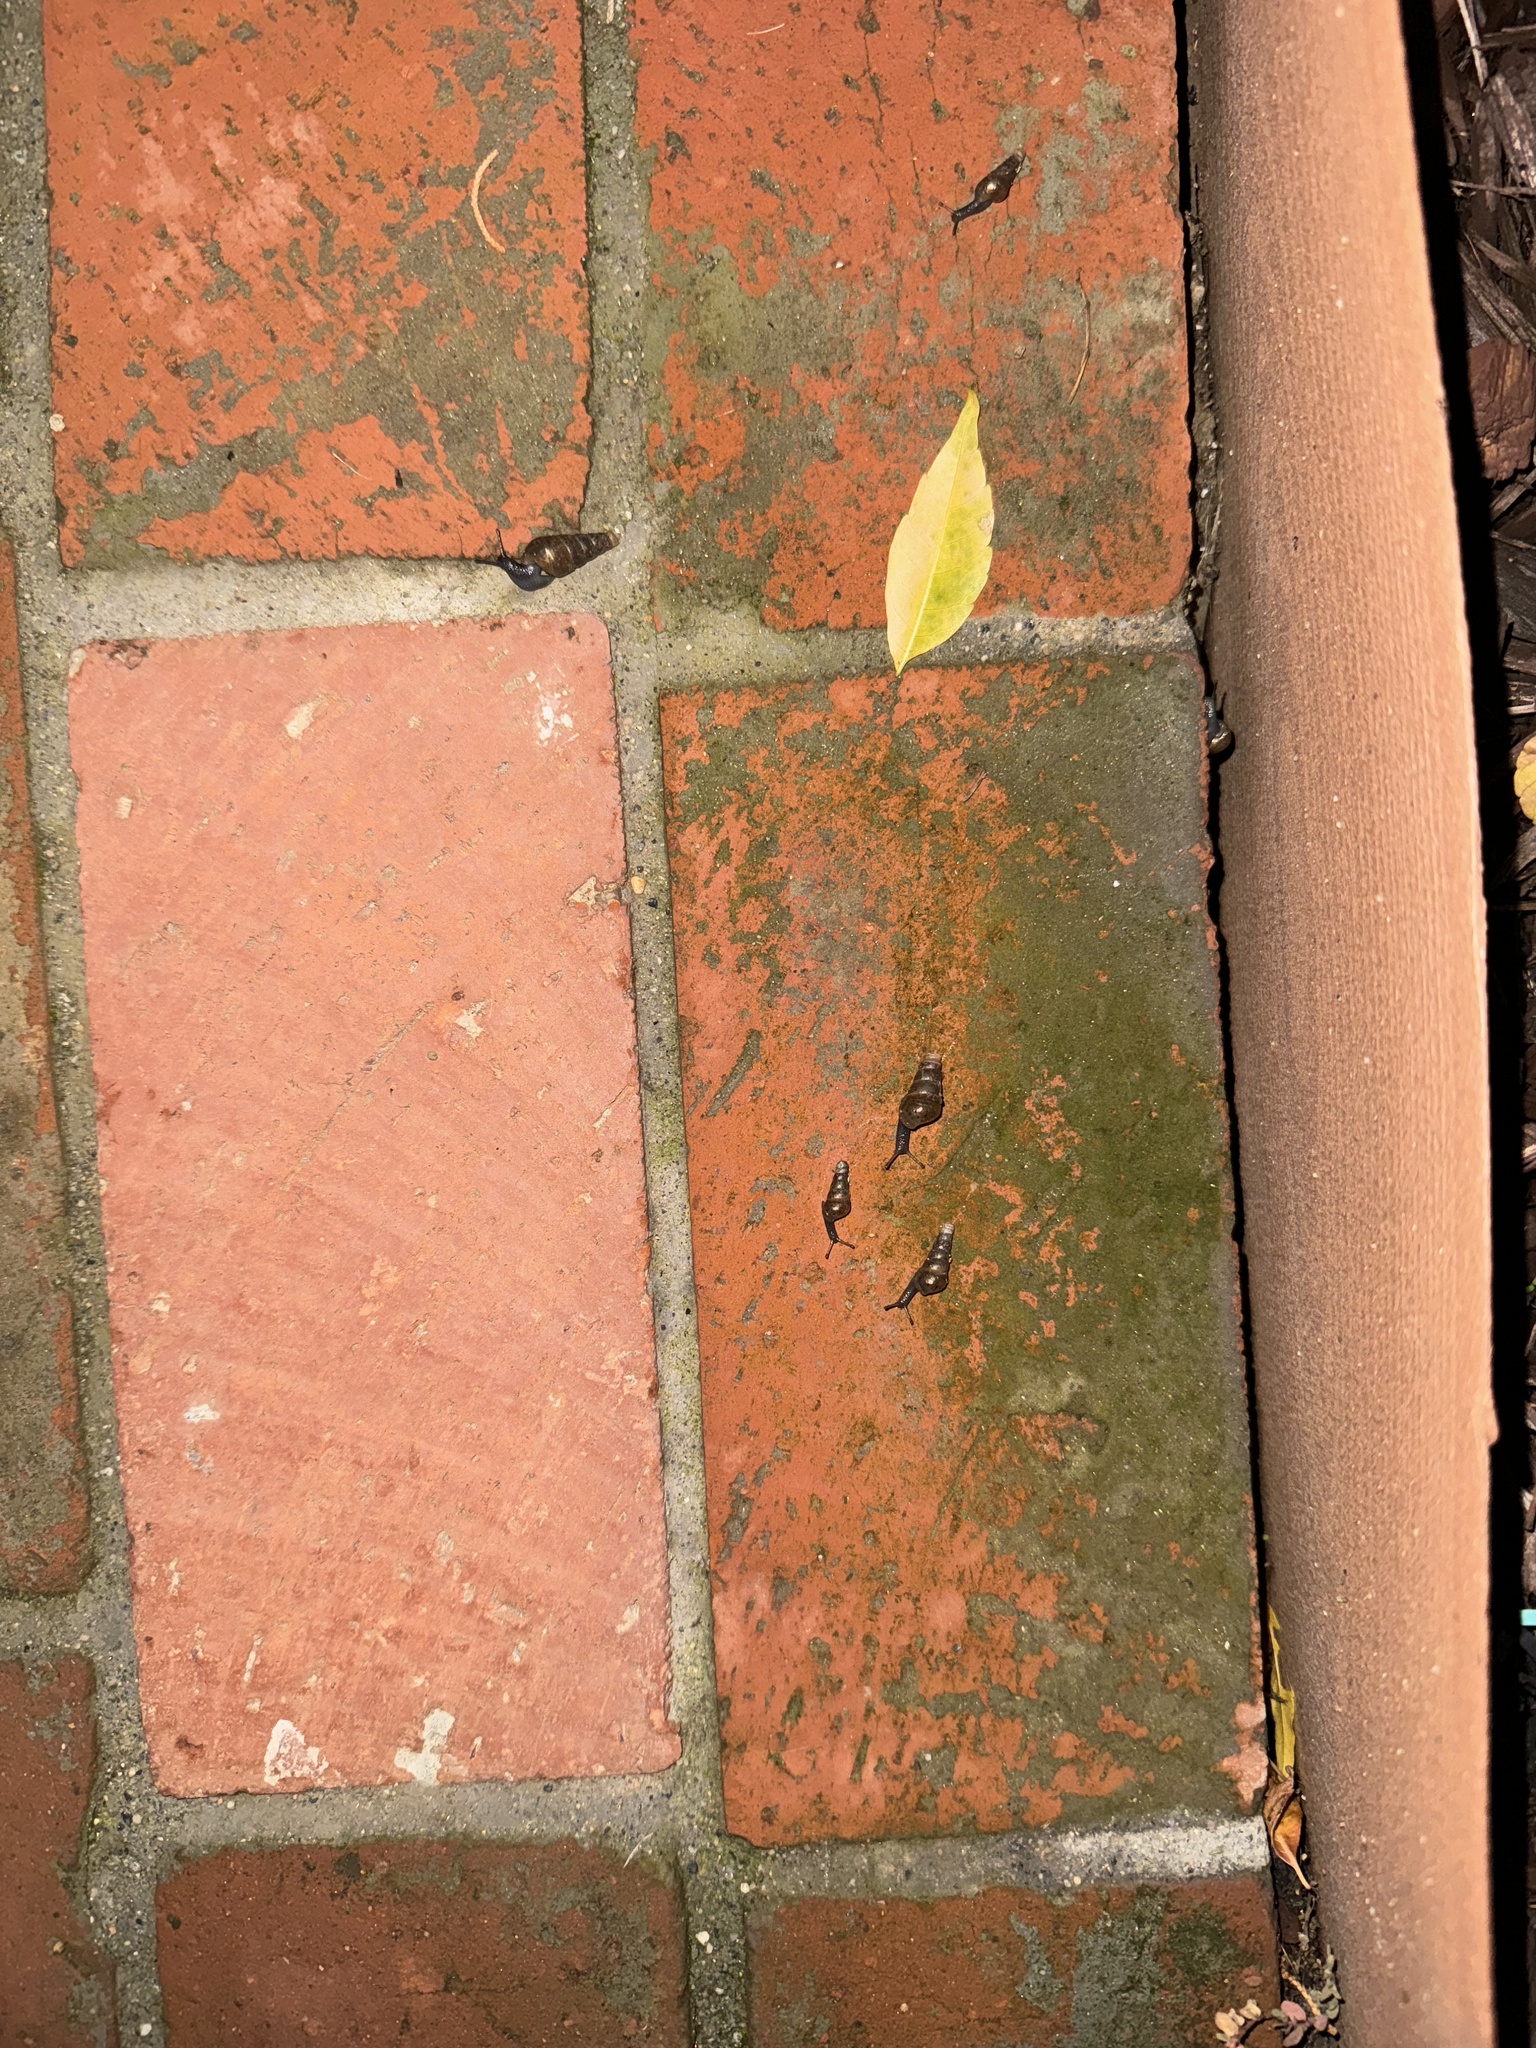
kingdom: Animalia
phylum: Mollusca
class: Gastropoda
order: Stylommatophora
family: Achatinidae
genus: Rumina
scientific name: Rumina decollata
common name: Decollate snail
